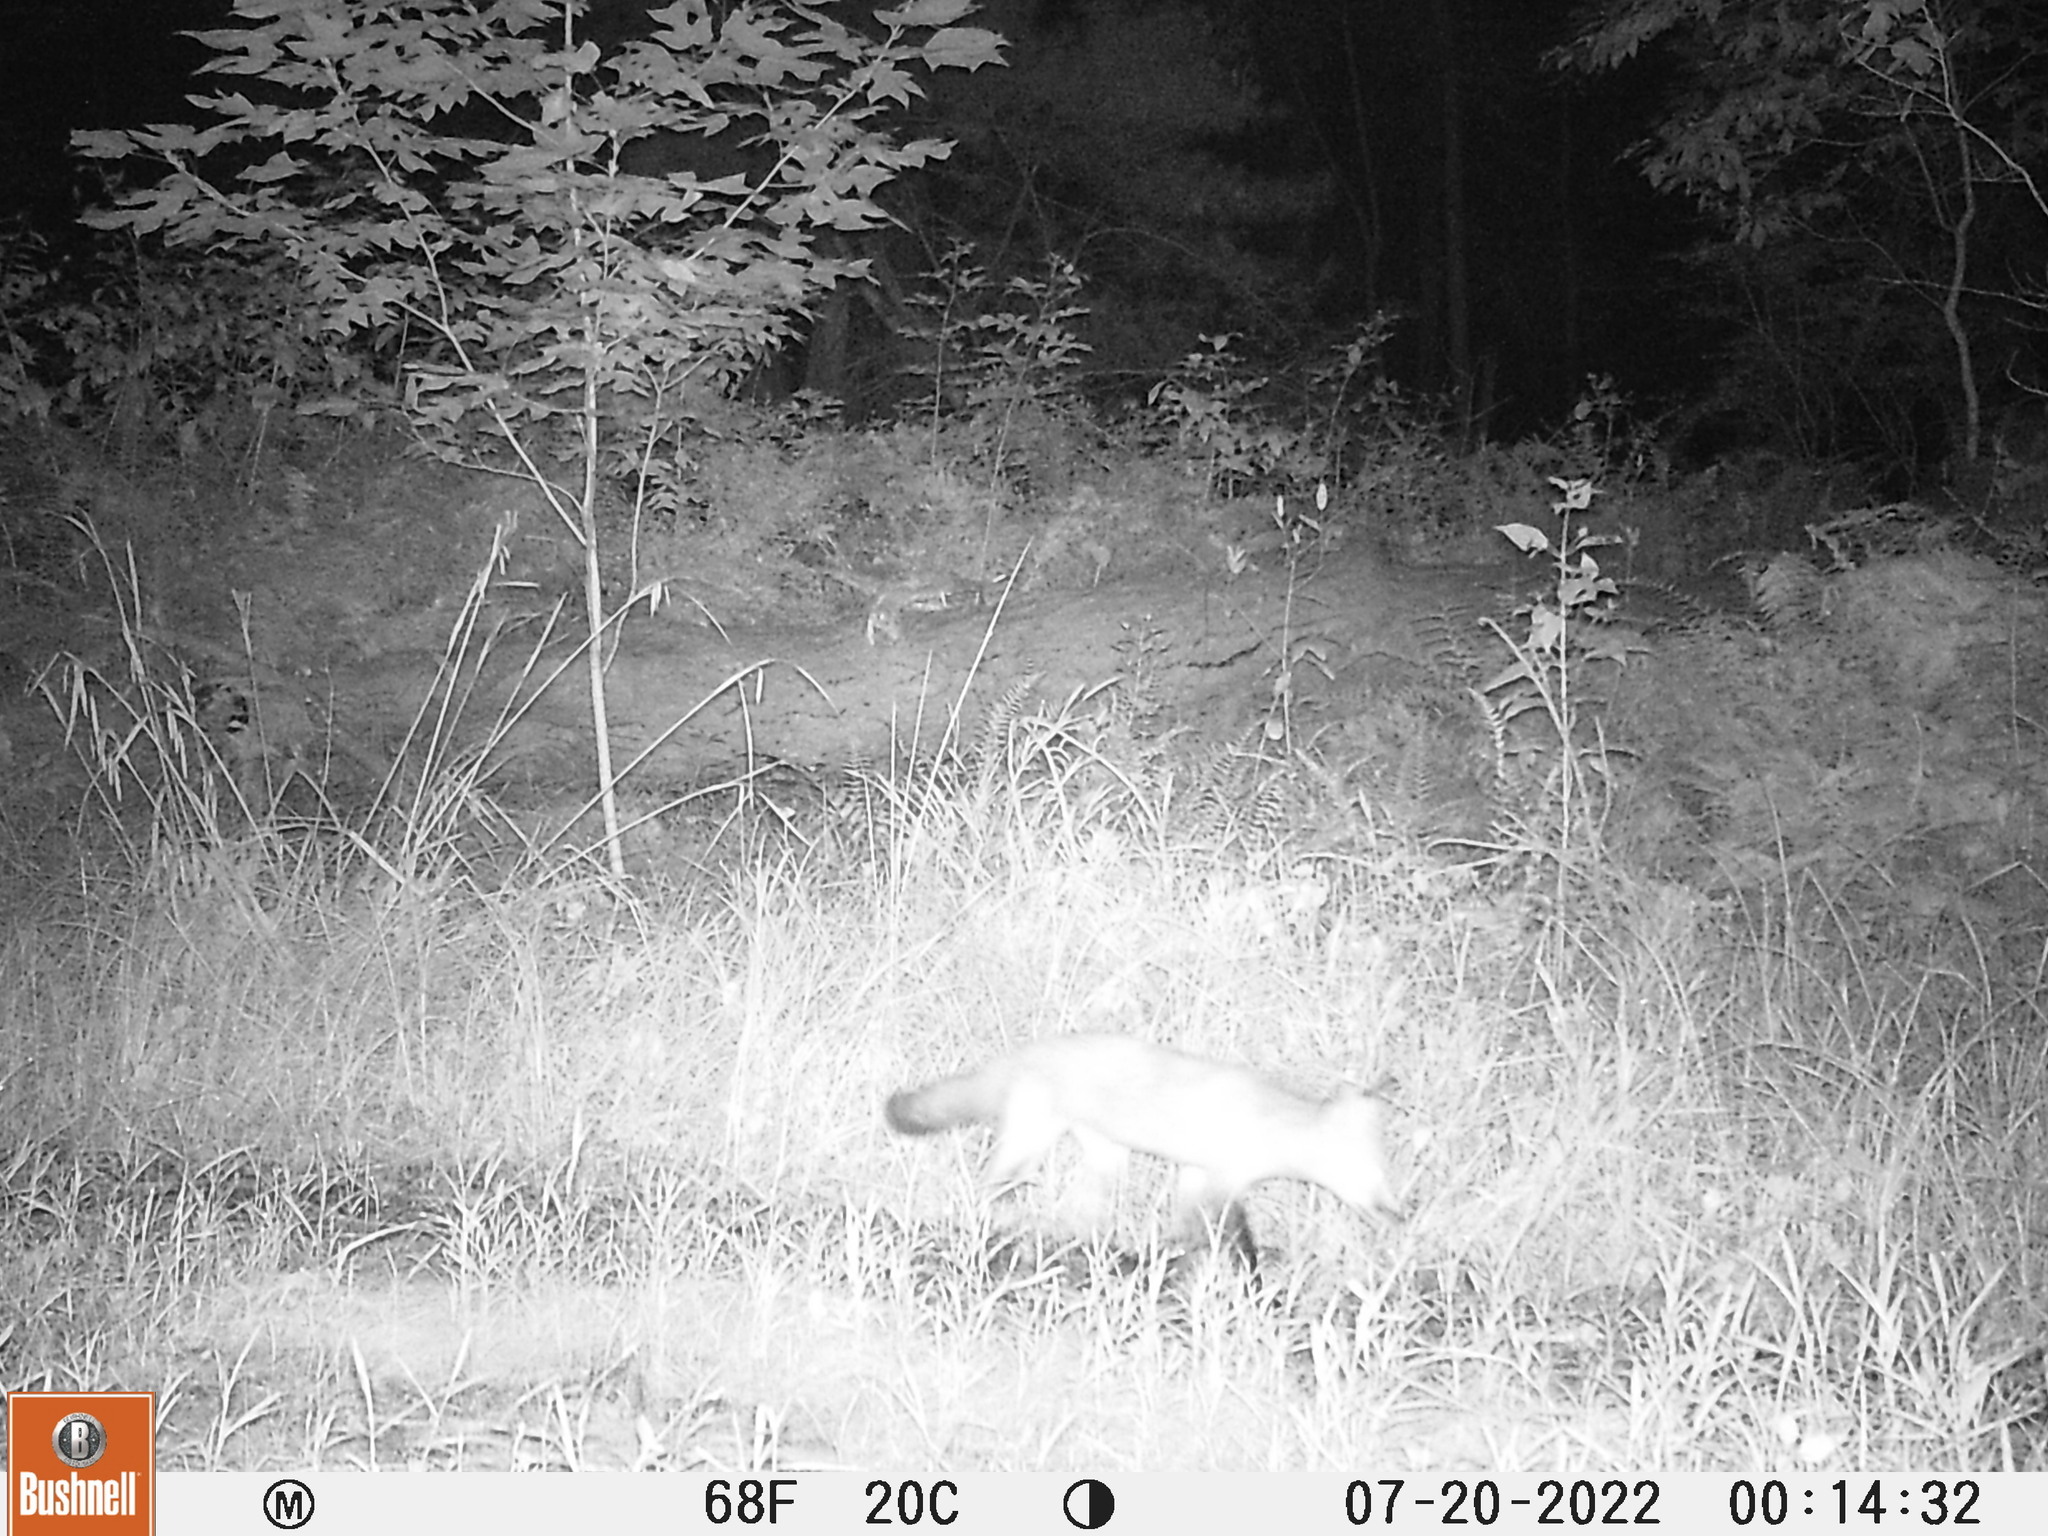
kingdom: Animalia
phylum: Chordata
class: Mammalia
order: Carnivora
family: Canidae
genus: Vulpes
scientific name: Vulpes vulpes
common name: Red fox
